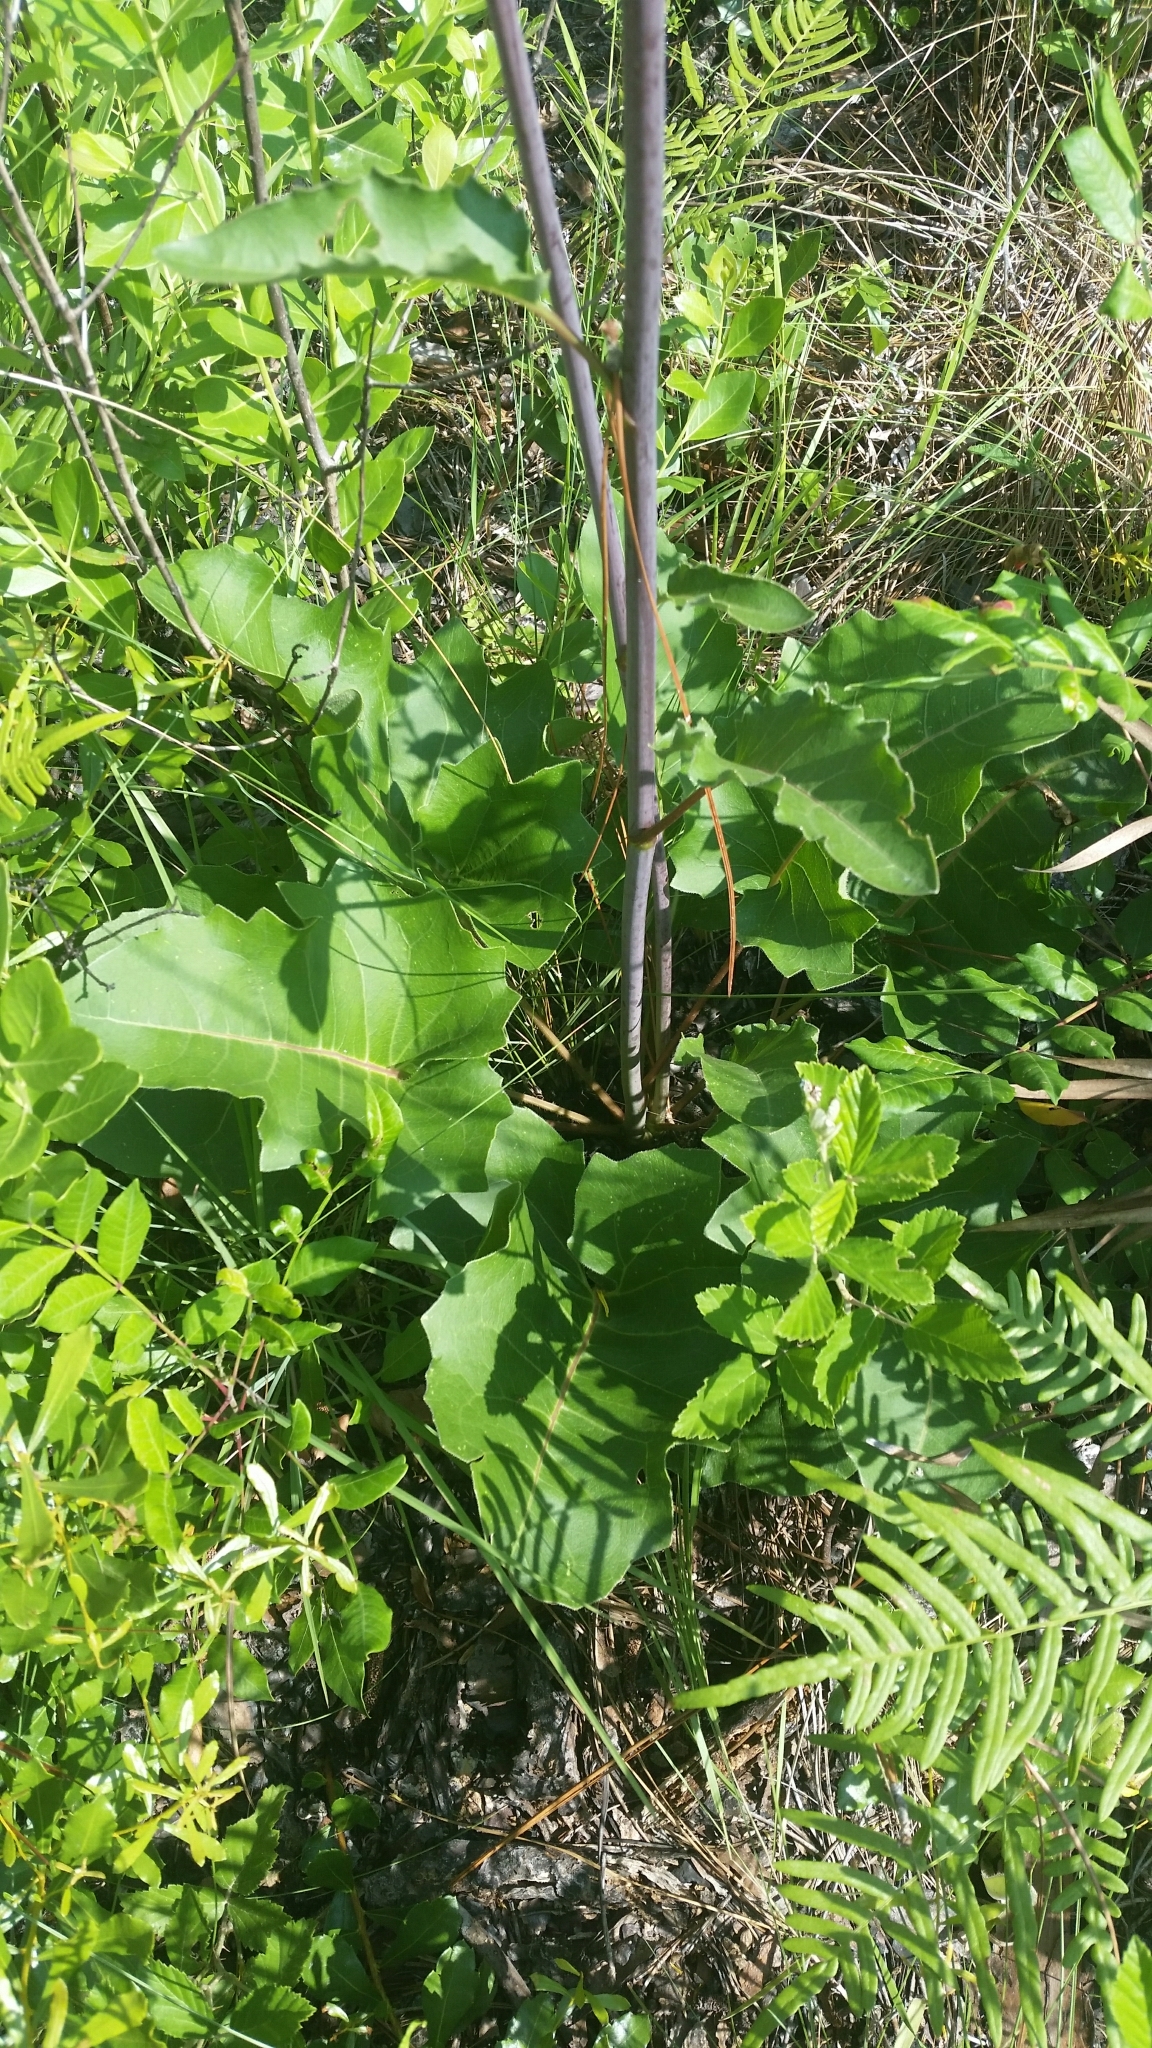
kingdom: Plantae
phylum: Tracheophyta
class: Magnoliopsida
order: Asterales
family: Asteraceae
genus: Silphium
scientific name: Silphium compositum
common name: Lesser basal-leaf rosinweed
